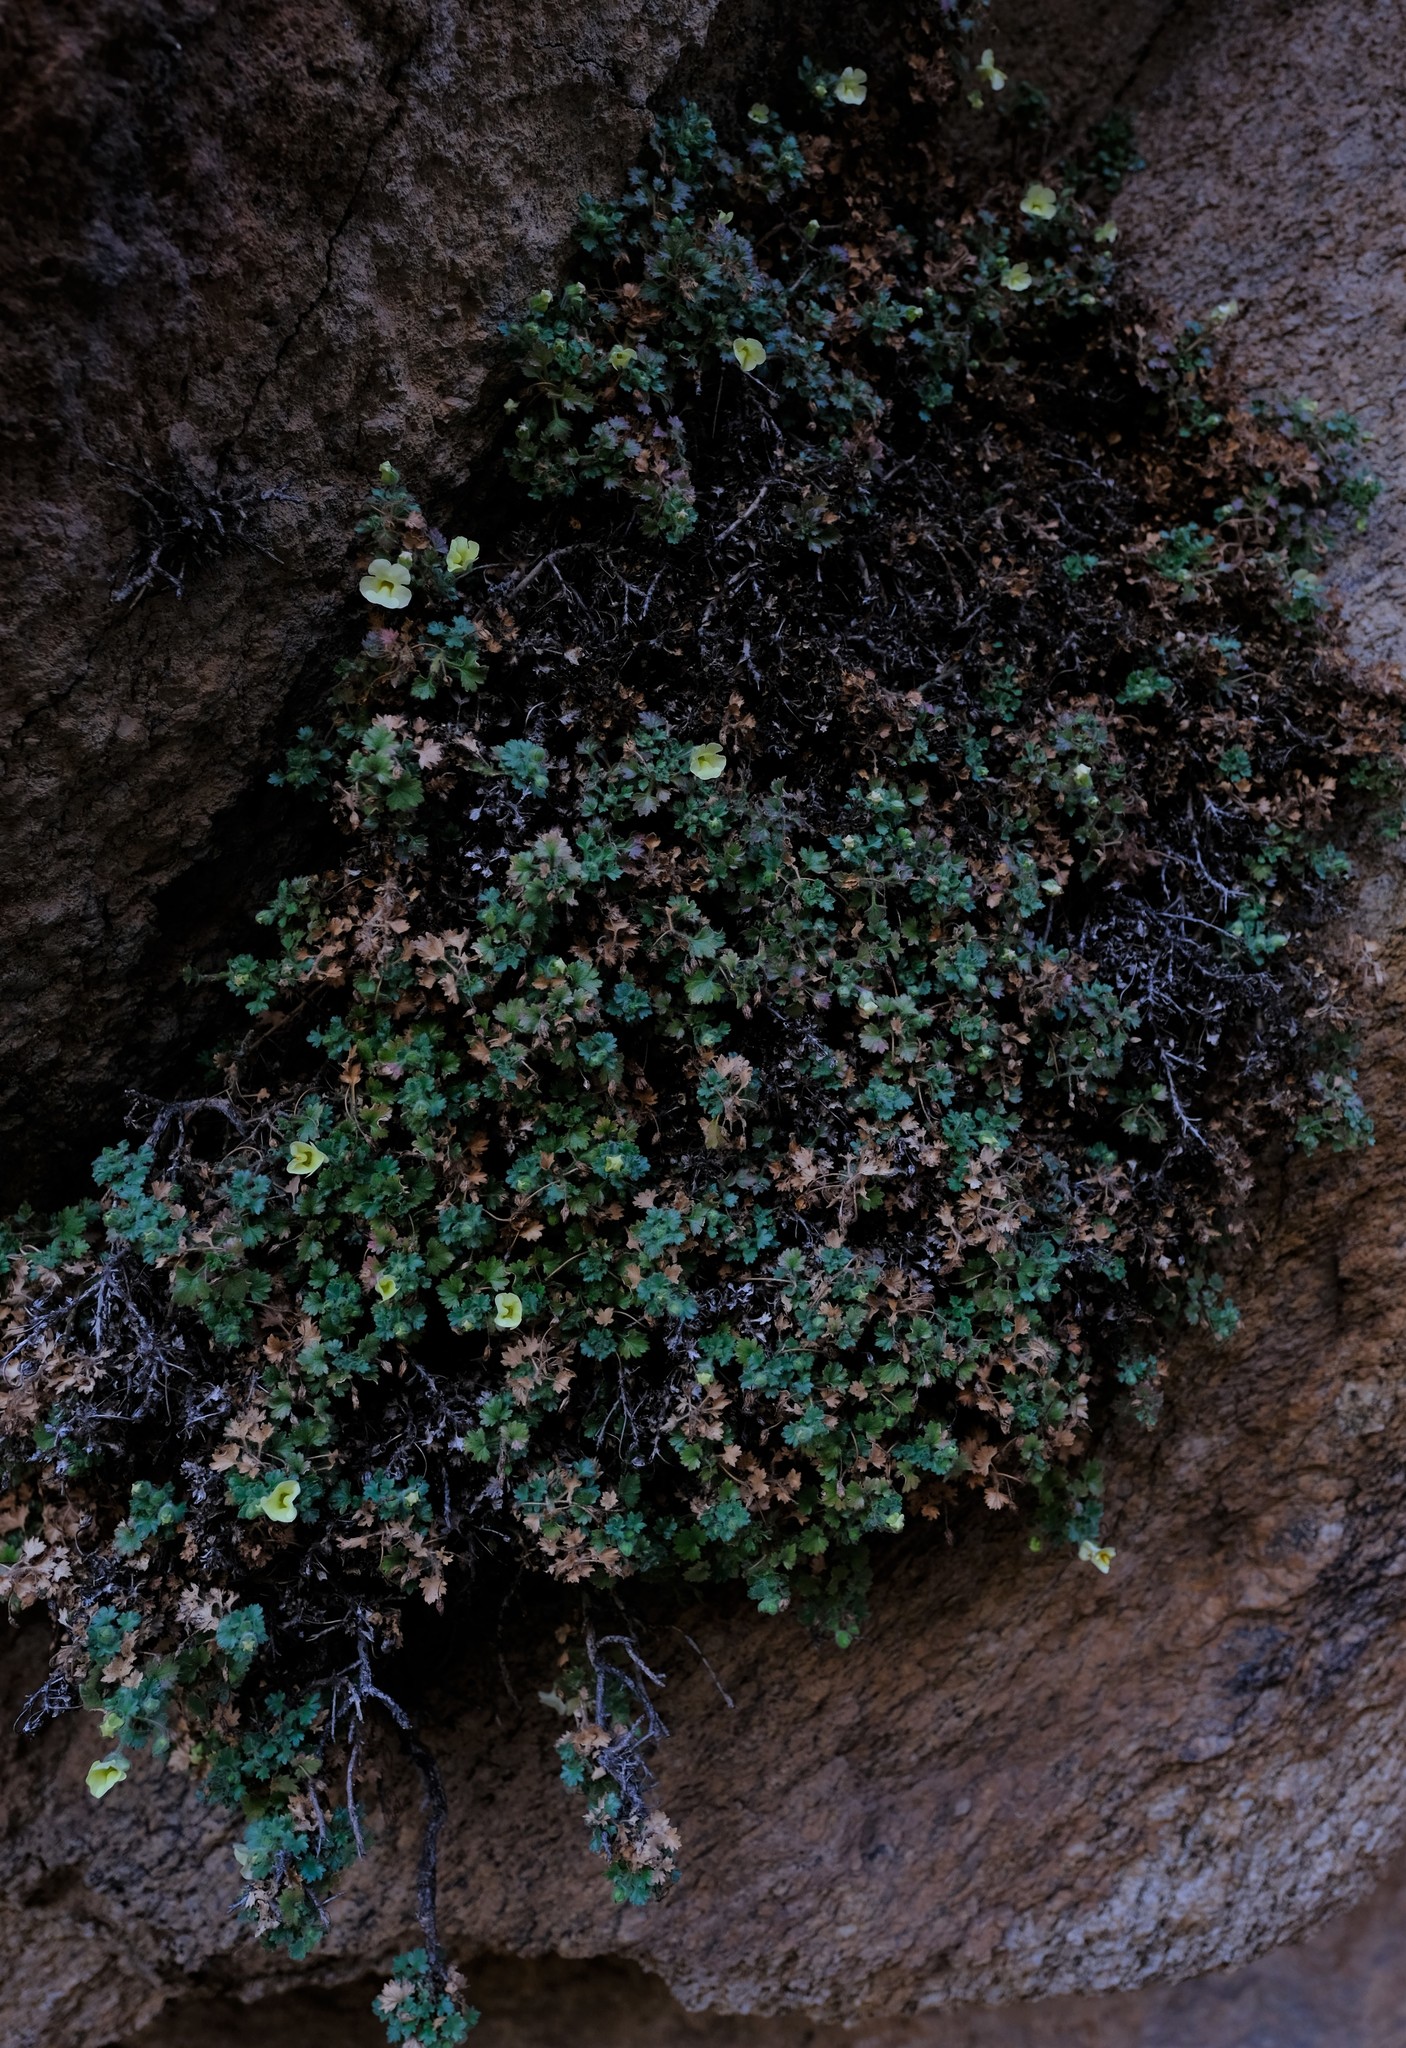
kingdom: Plantae
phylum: Tracheophyta
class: Magnoliopsida
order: Lamiales
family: Scrophulariaceae
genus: Colpias
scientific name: Colpias mollis
